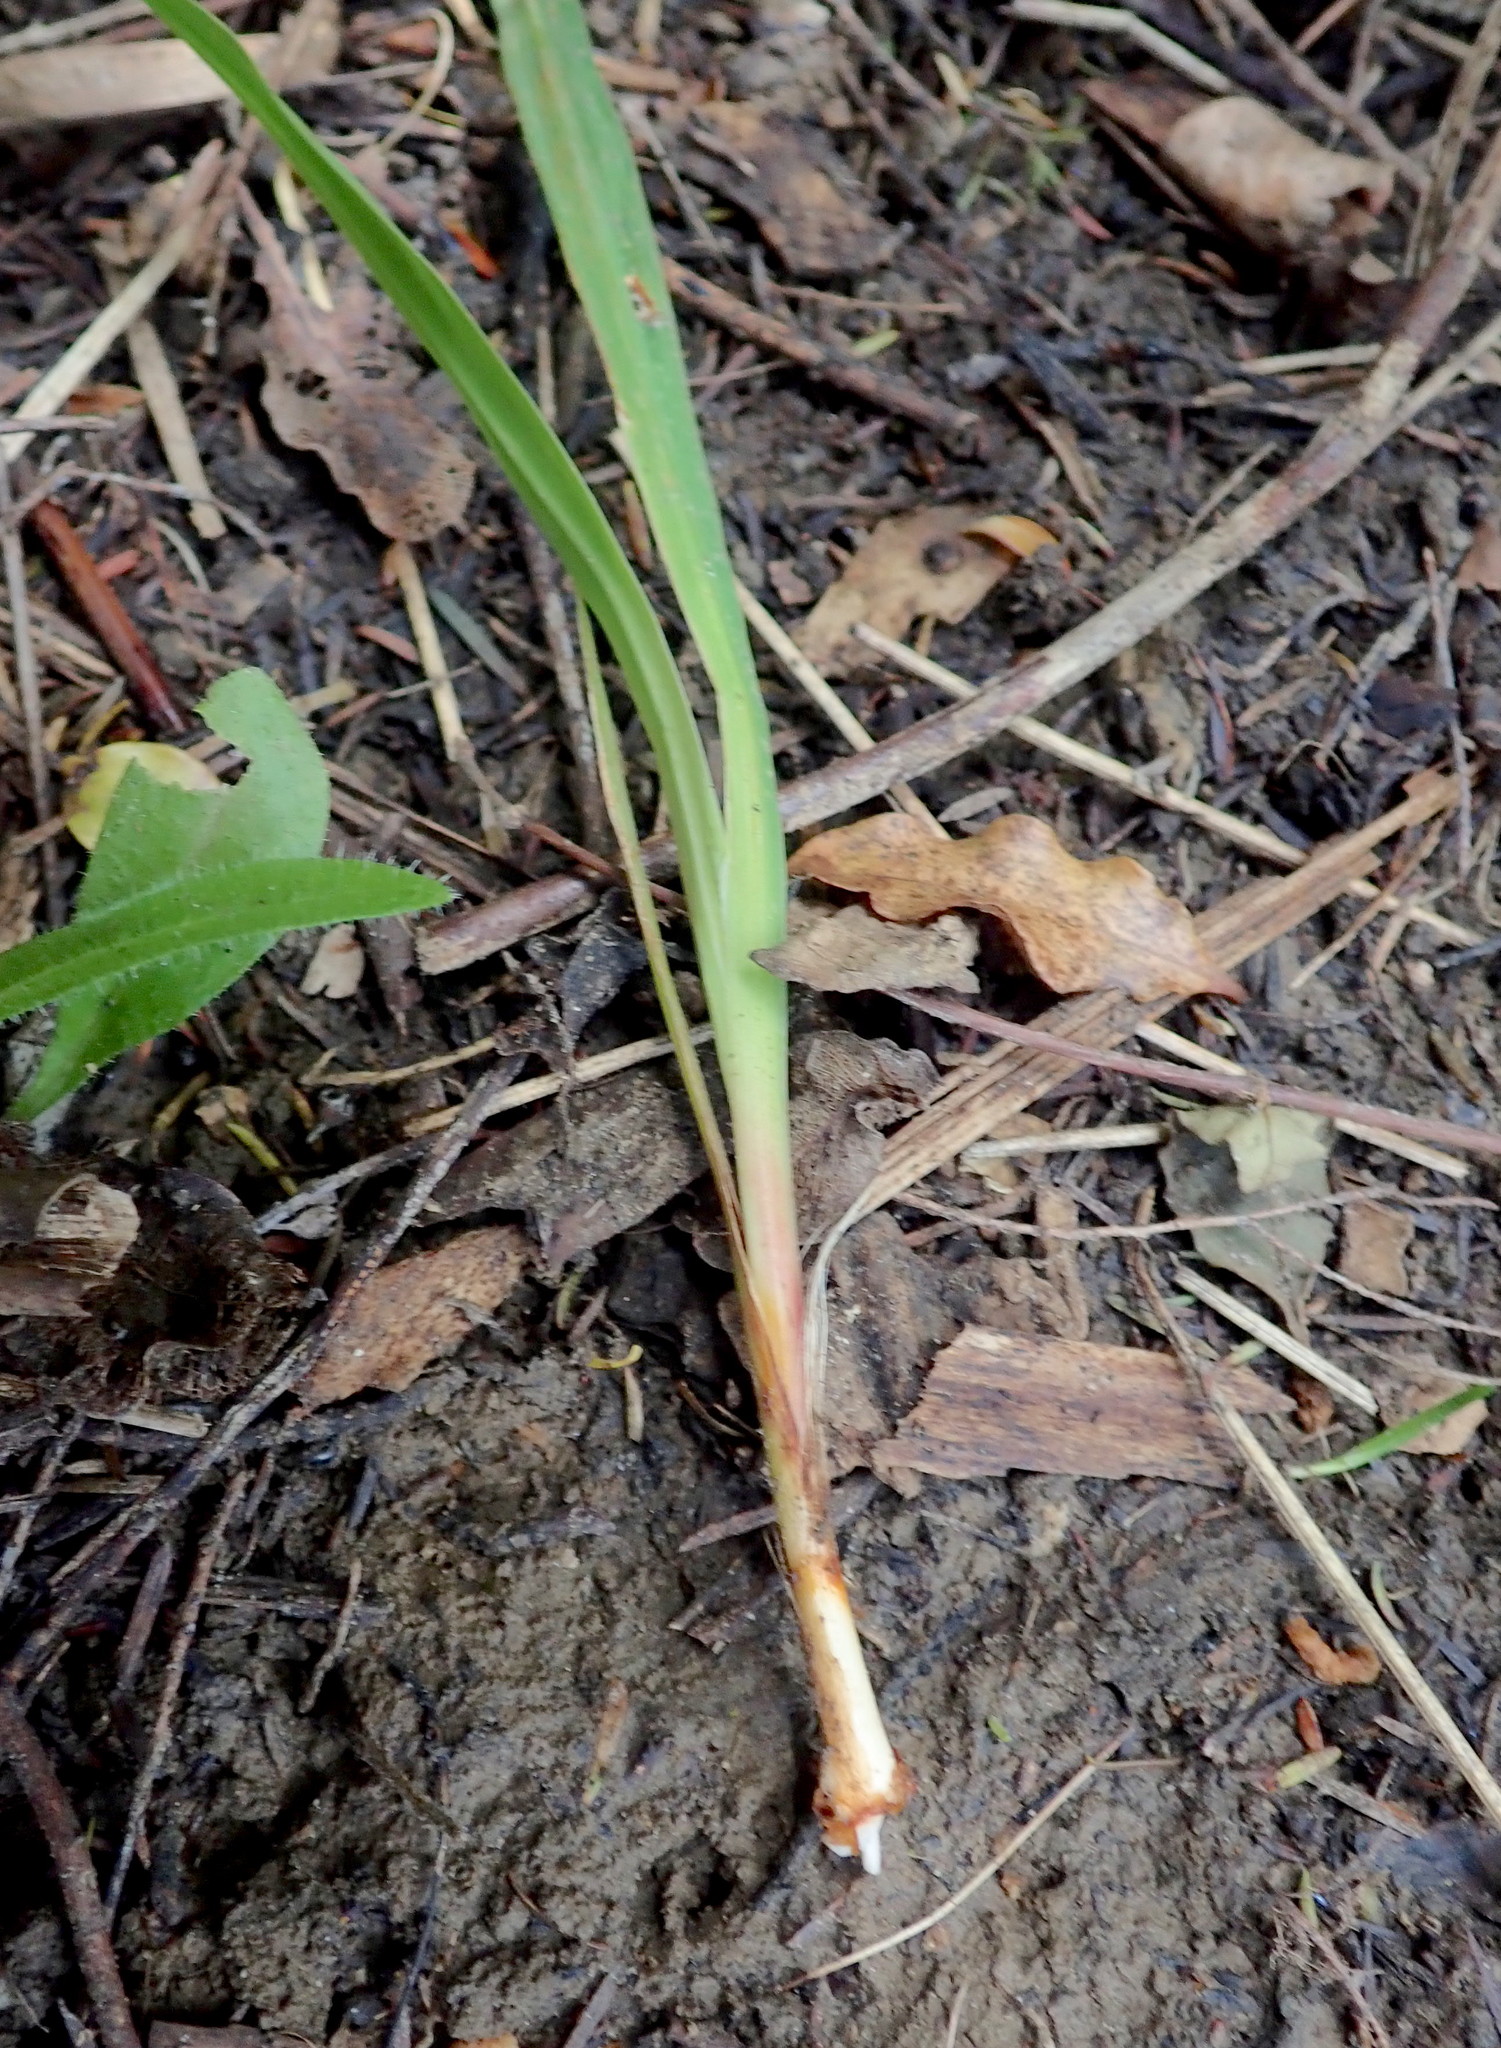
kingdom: Plantae
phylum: Tracheophyta
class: Liliopsida
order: Asparagales
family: Iridaceae
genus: Watsonia
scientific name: Watsonia meriana
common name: Bulbil bugle-lily
